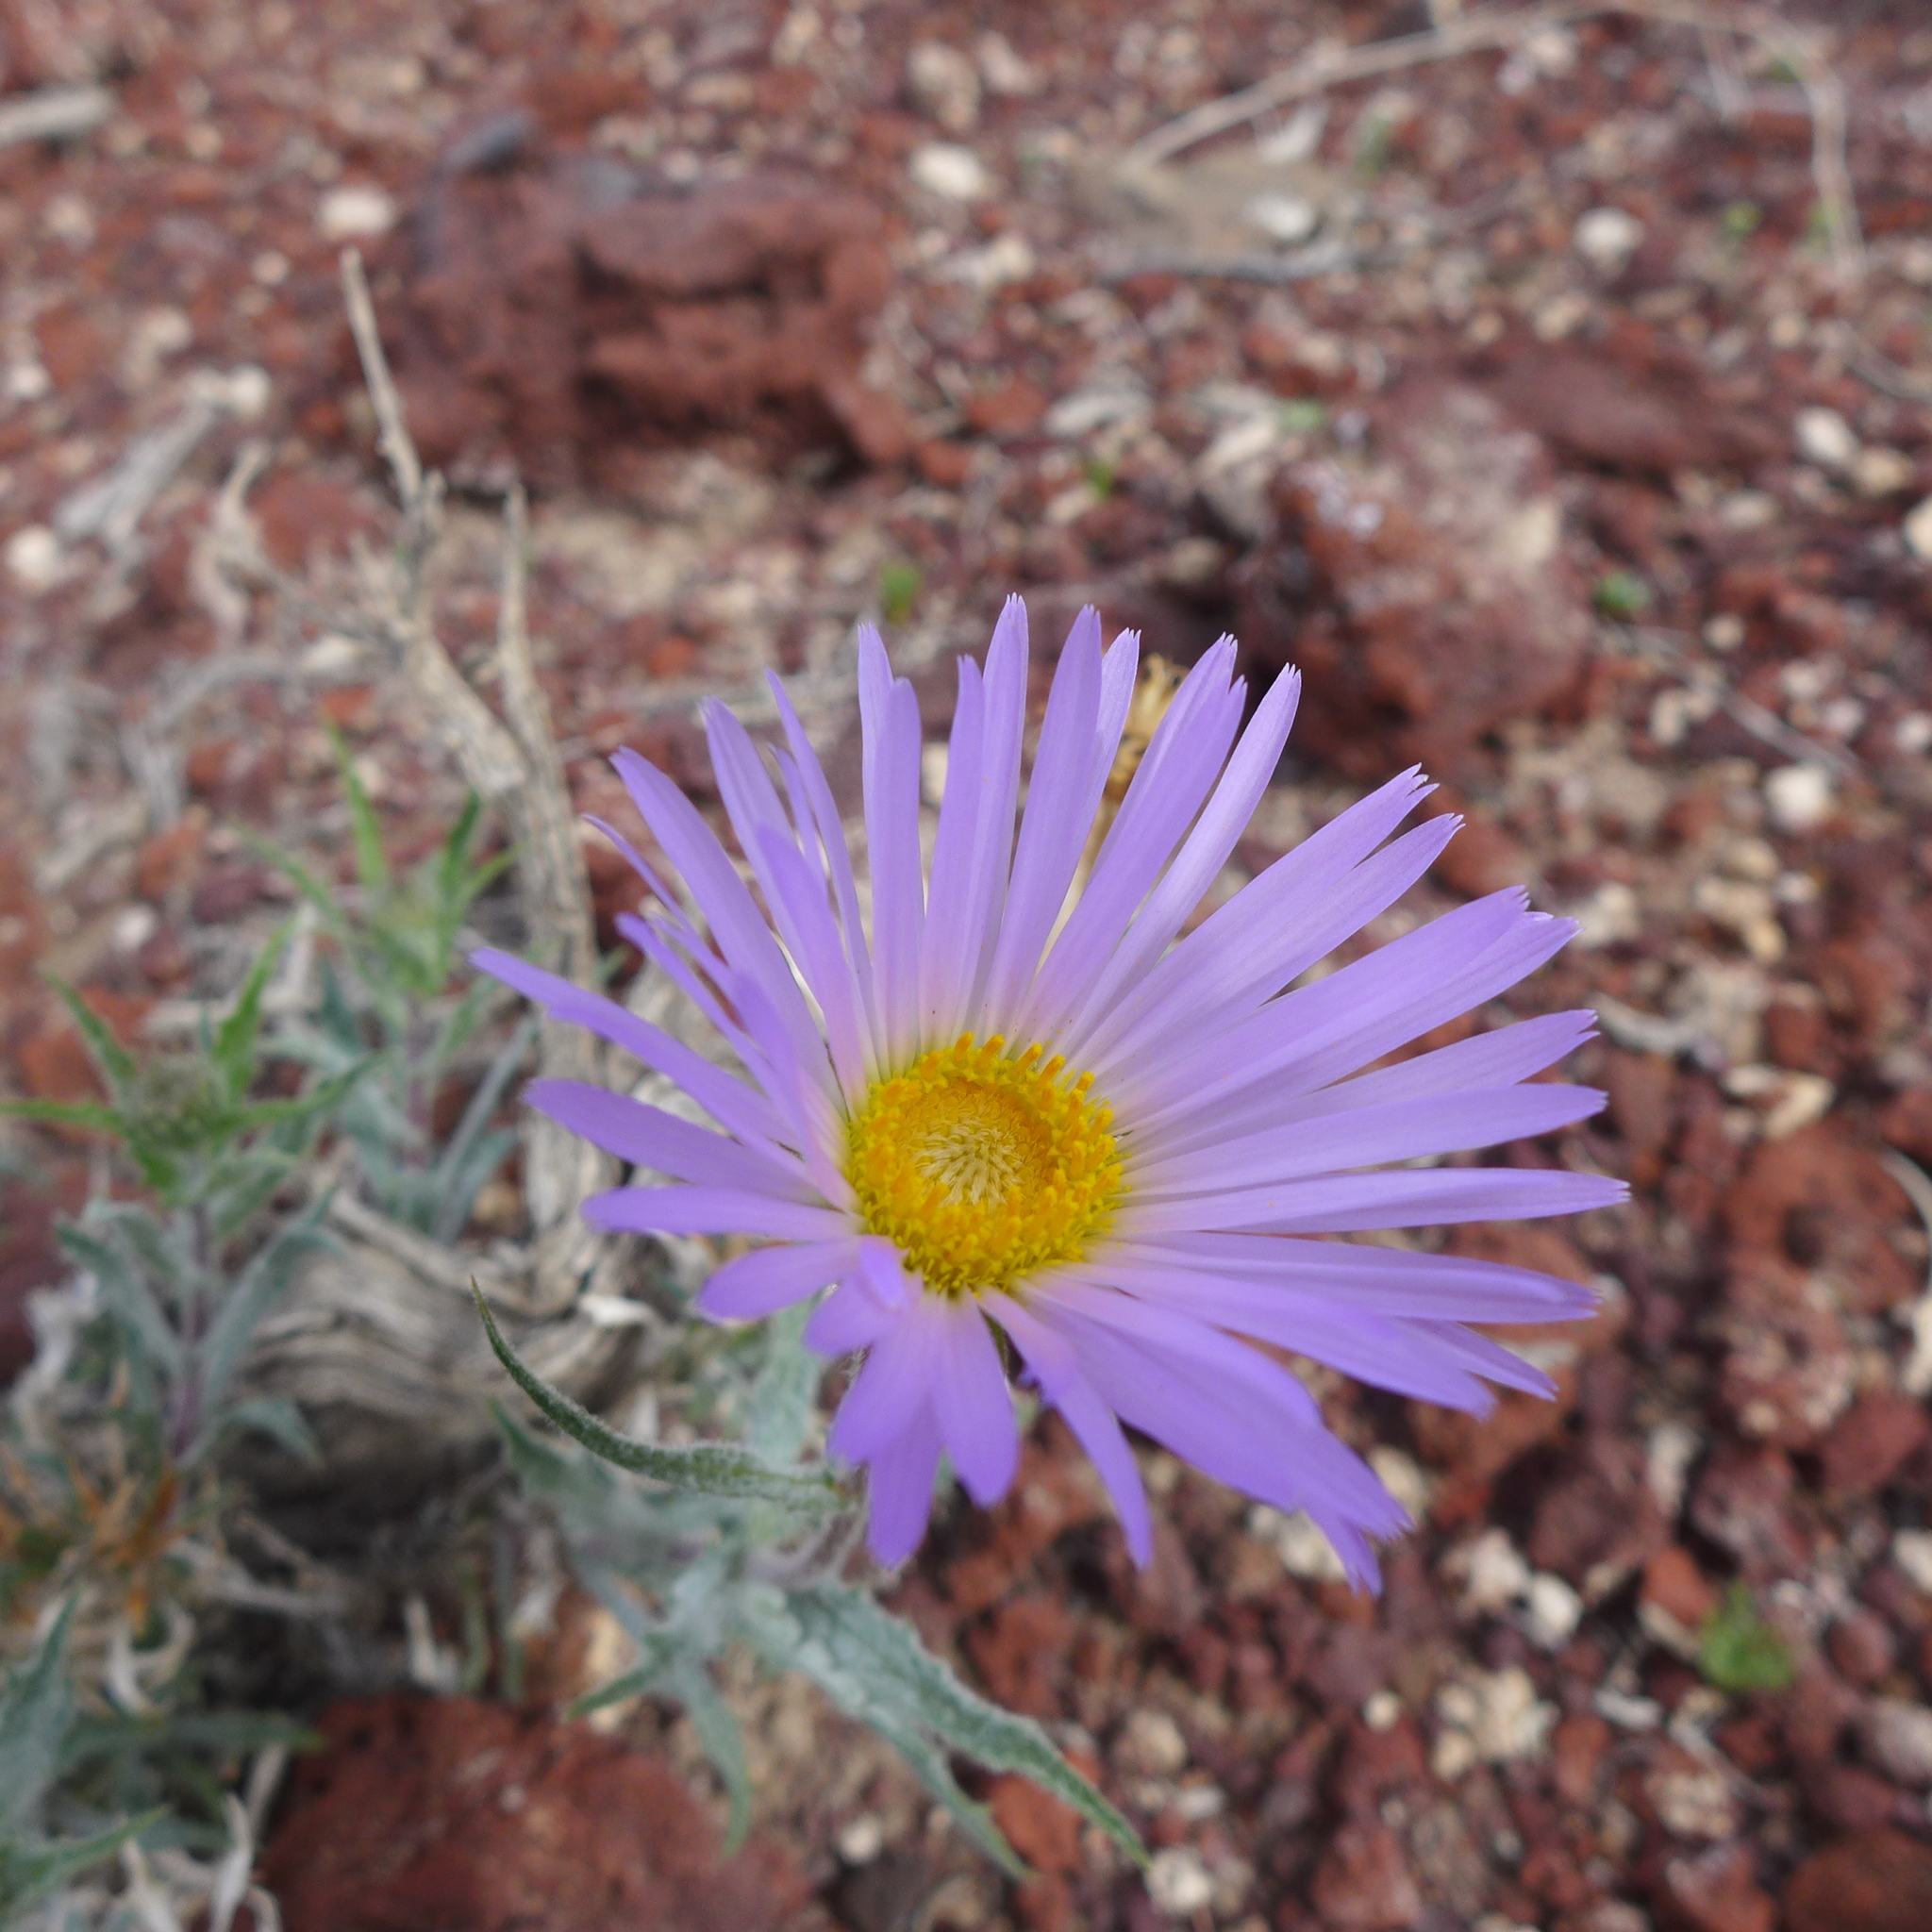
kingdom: Plantae
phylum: Tracheophyta
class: Magnoliopsida
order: Asterales
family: Asteraceae
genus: Xylorhiza
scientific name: Xylorhiza tortifolia
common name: Hurt-leaf woody-aster
